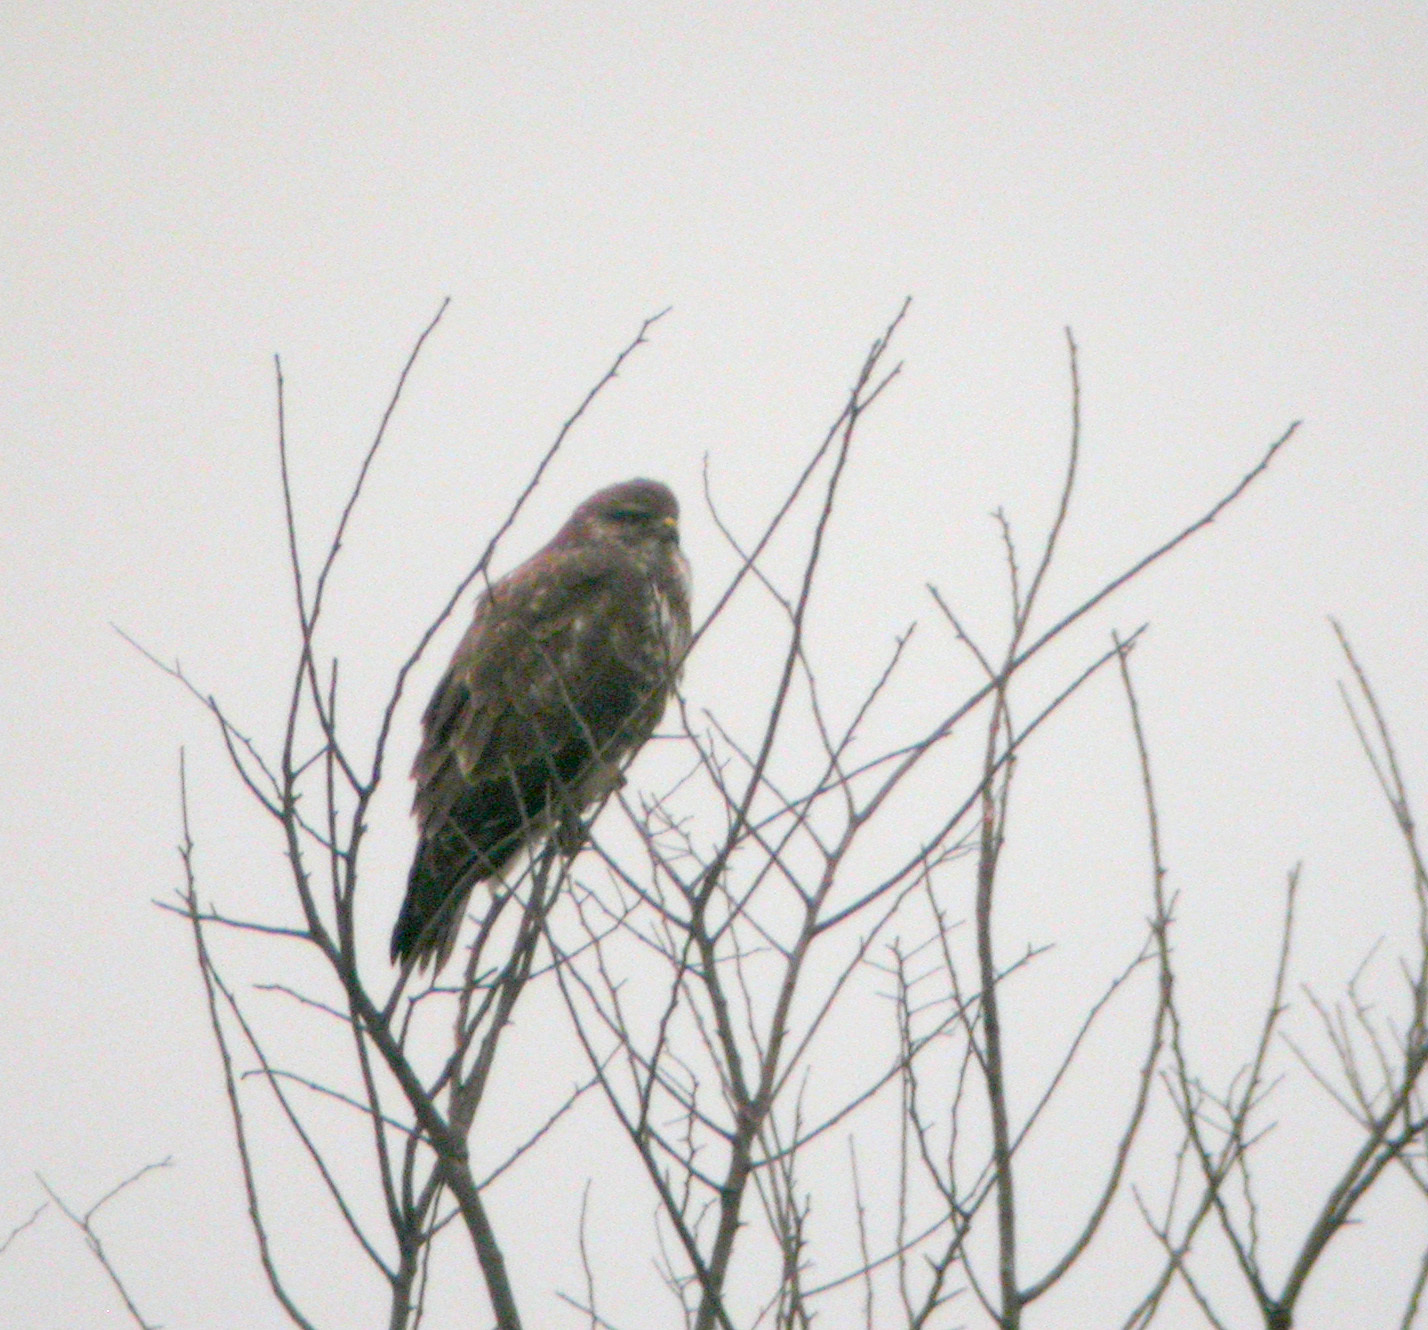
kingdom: Animalia
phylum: Chordata
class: Aves
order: Accipitriformes
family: Accipitridae
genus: Buteo
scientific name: Buteo buteo
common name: Common buzzard
